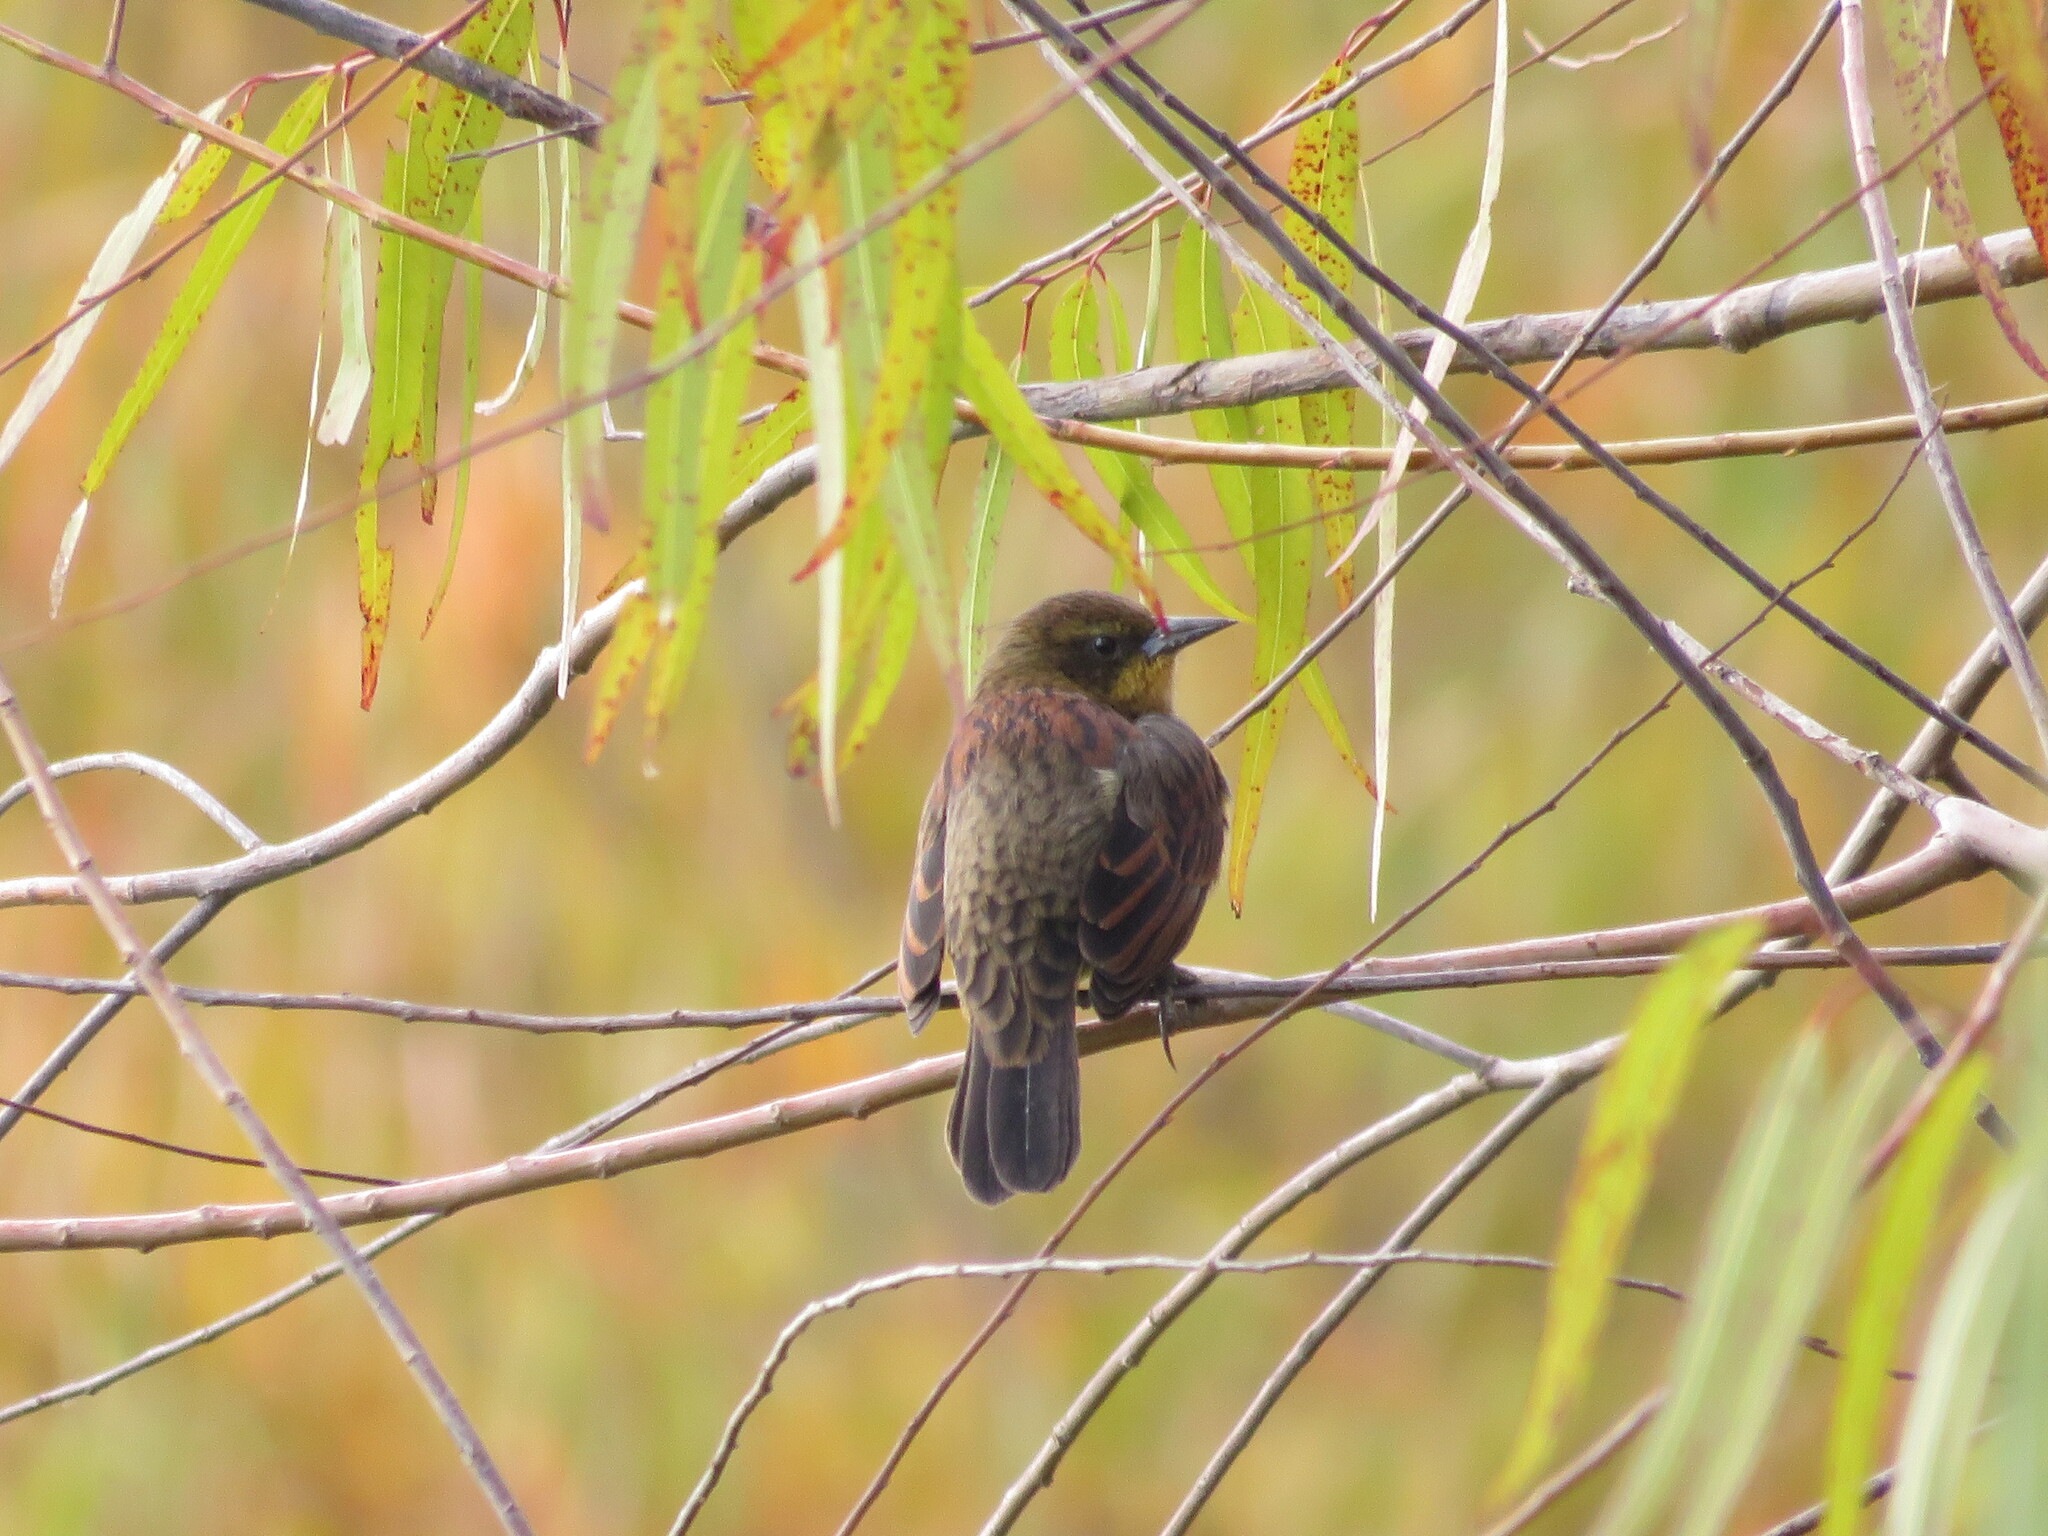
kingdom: Animalia
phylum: Chordata
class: Aves
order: Passeriformes
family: Icteridae
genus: Agelasticus
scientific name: Agelasticus cyanopus
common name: Unicolored blackbird
